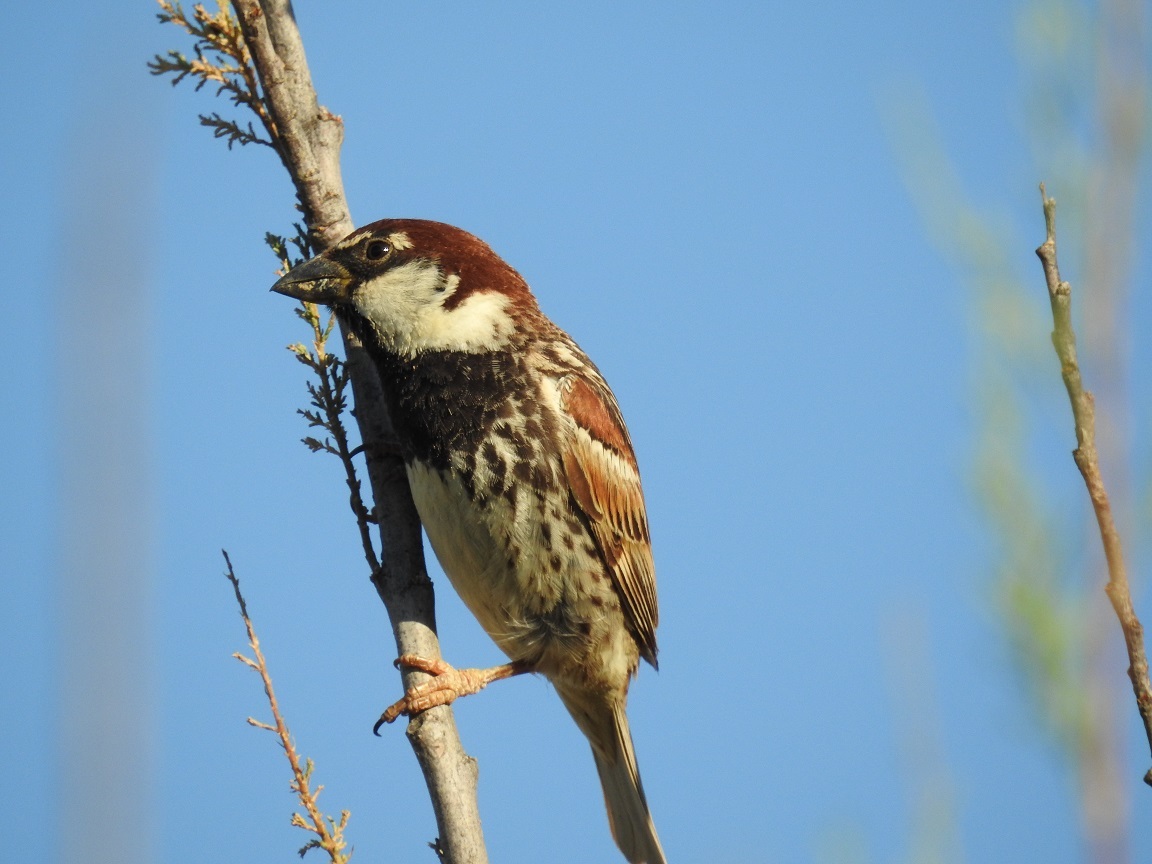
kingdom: Animalia
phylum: Chordata
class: Aves
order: Passeriformes
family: Passeridae
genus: Passer
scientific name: Passer hispaniolensis
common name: Spanish sparrow
